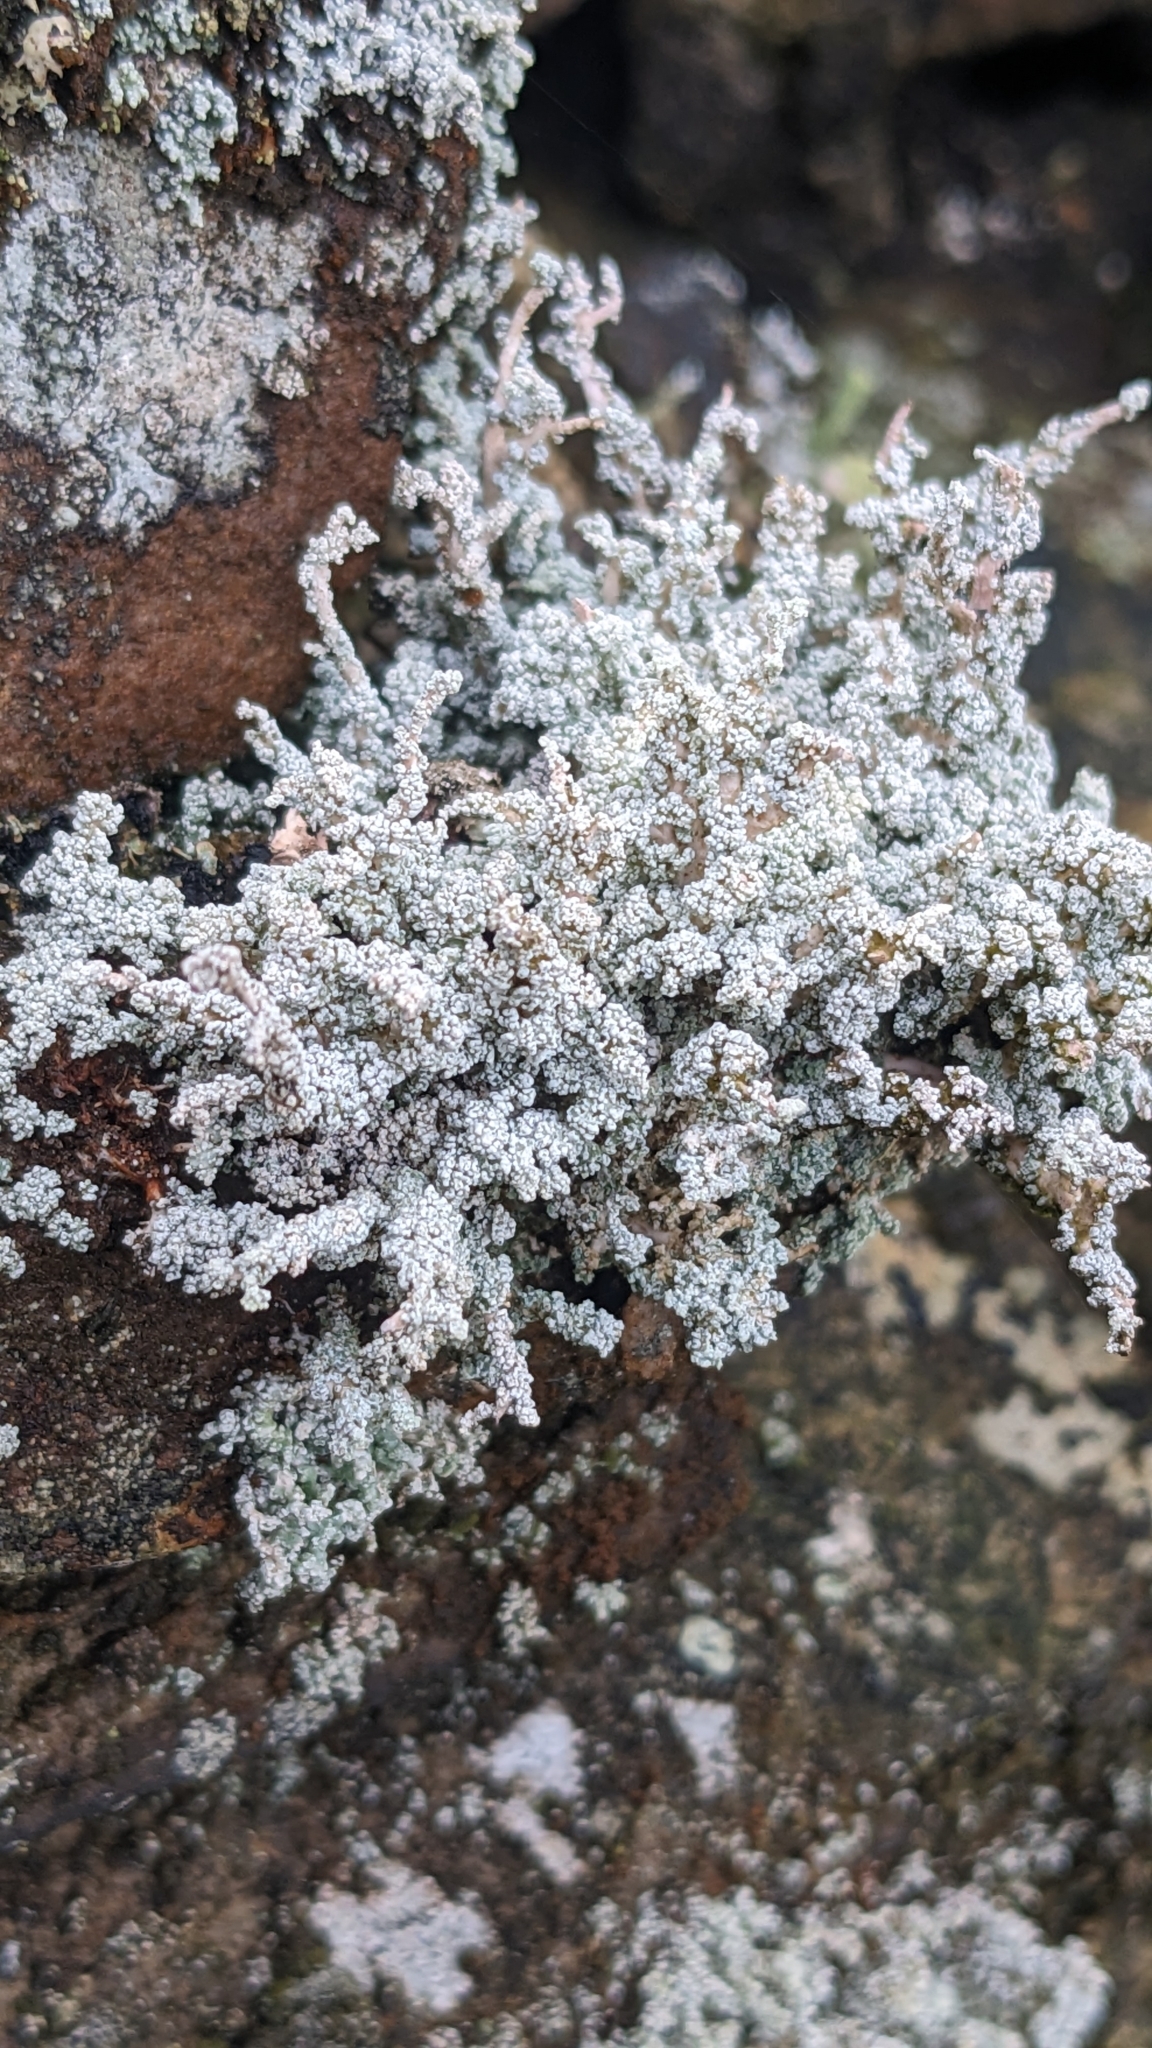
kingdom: Fungi
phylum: Ascomycota
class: Lecanoromycetes
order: Lecanorales
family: Stereocaulaceae
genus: Stereocaulon
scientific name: Stereocaulon vesuvianum
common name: Variegated foam lichen
